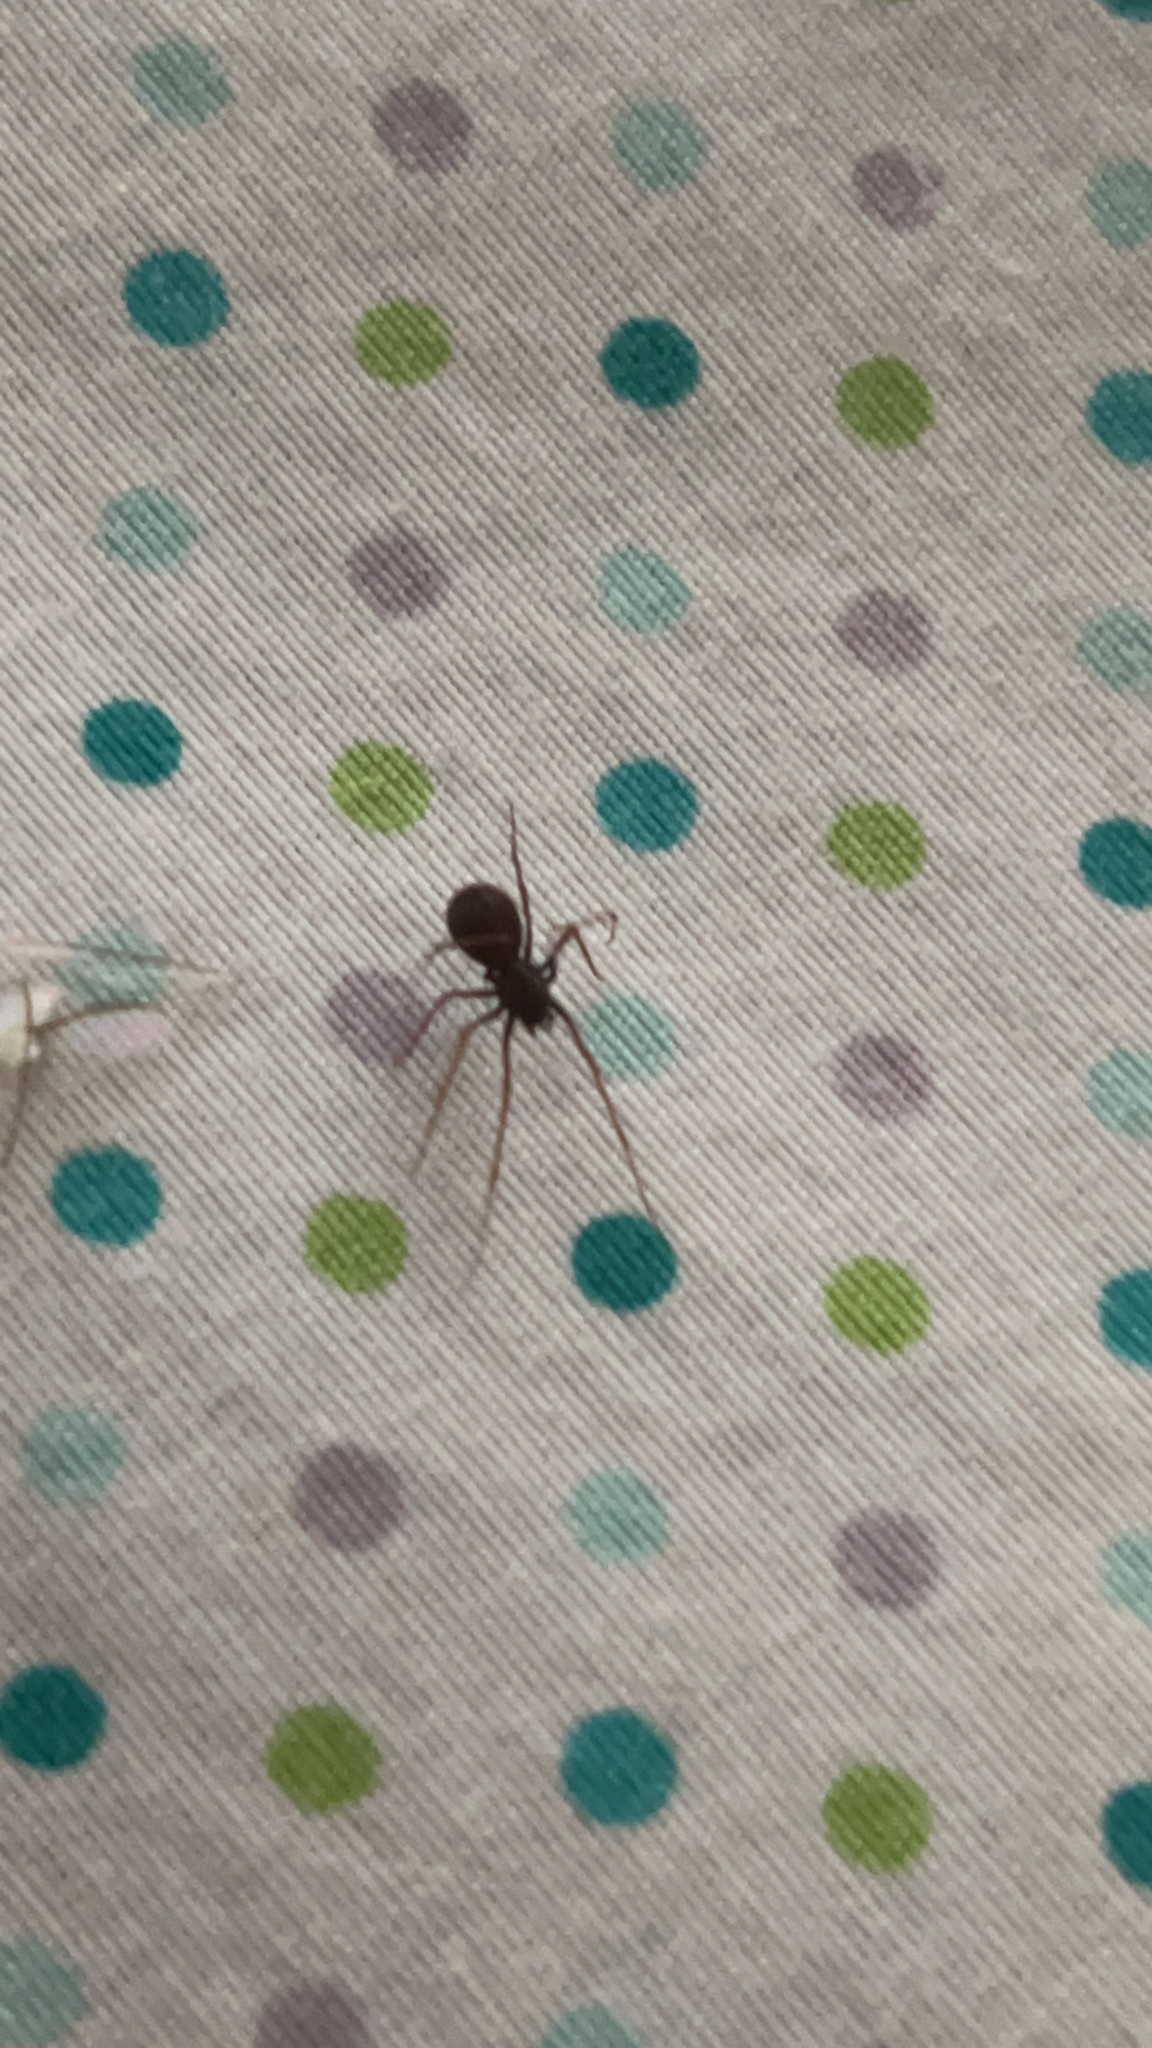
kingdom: Animalia
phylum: Arthropoda
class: Arachnida
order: Araneae
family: Scytodidae
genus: Scytodes
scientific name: Scytodes fusca
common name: Spitting spiders
